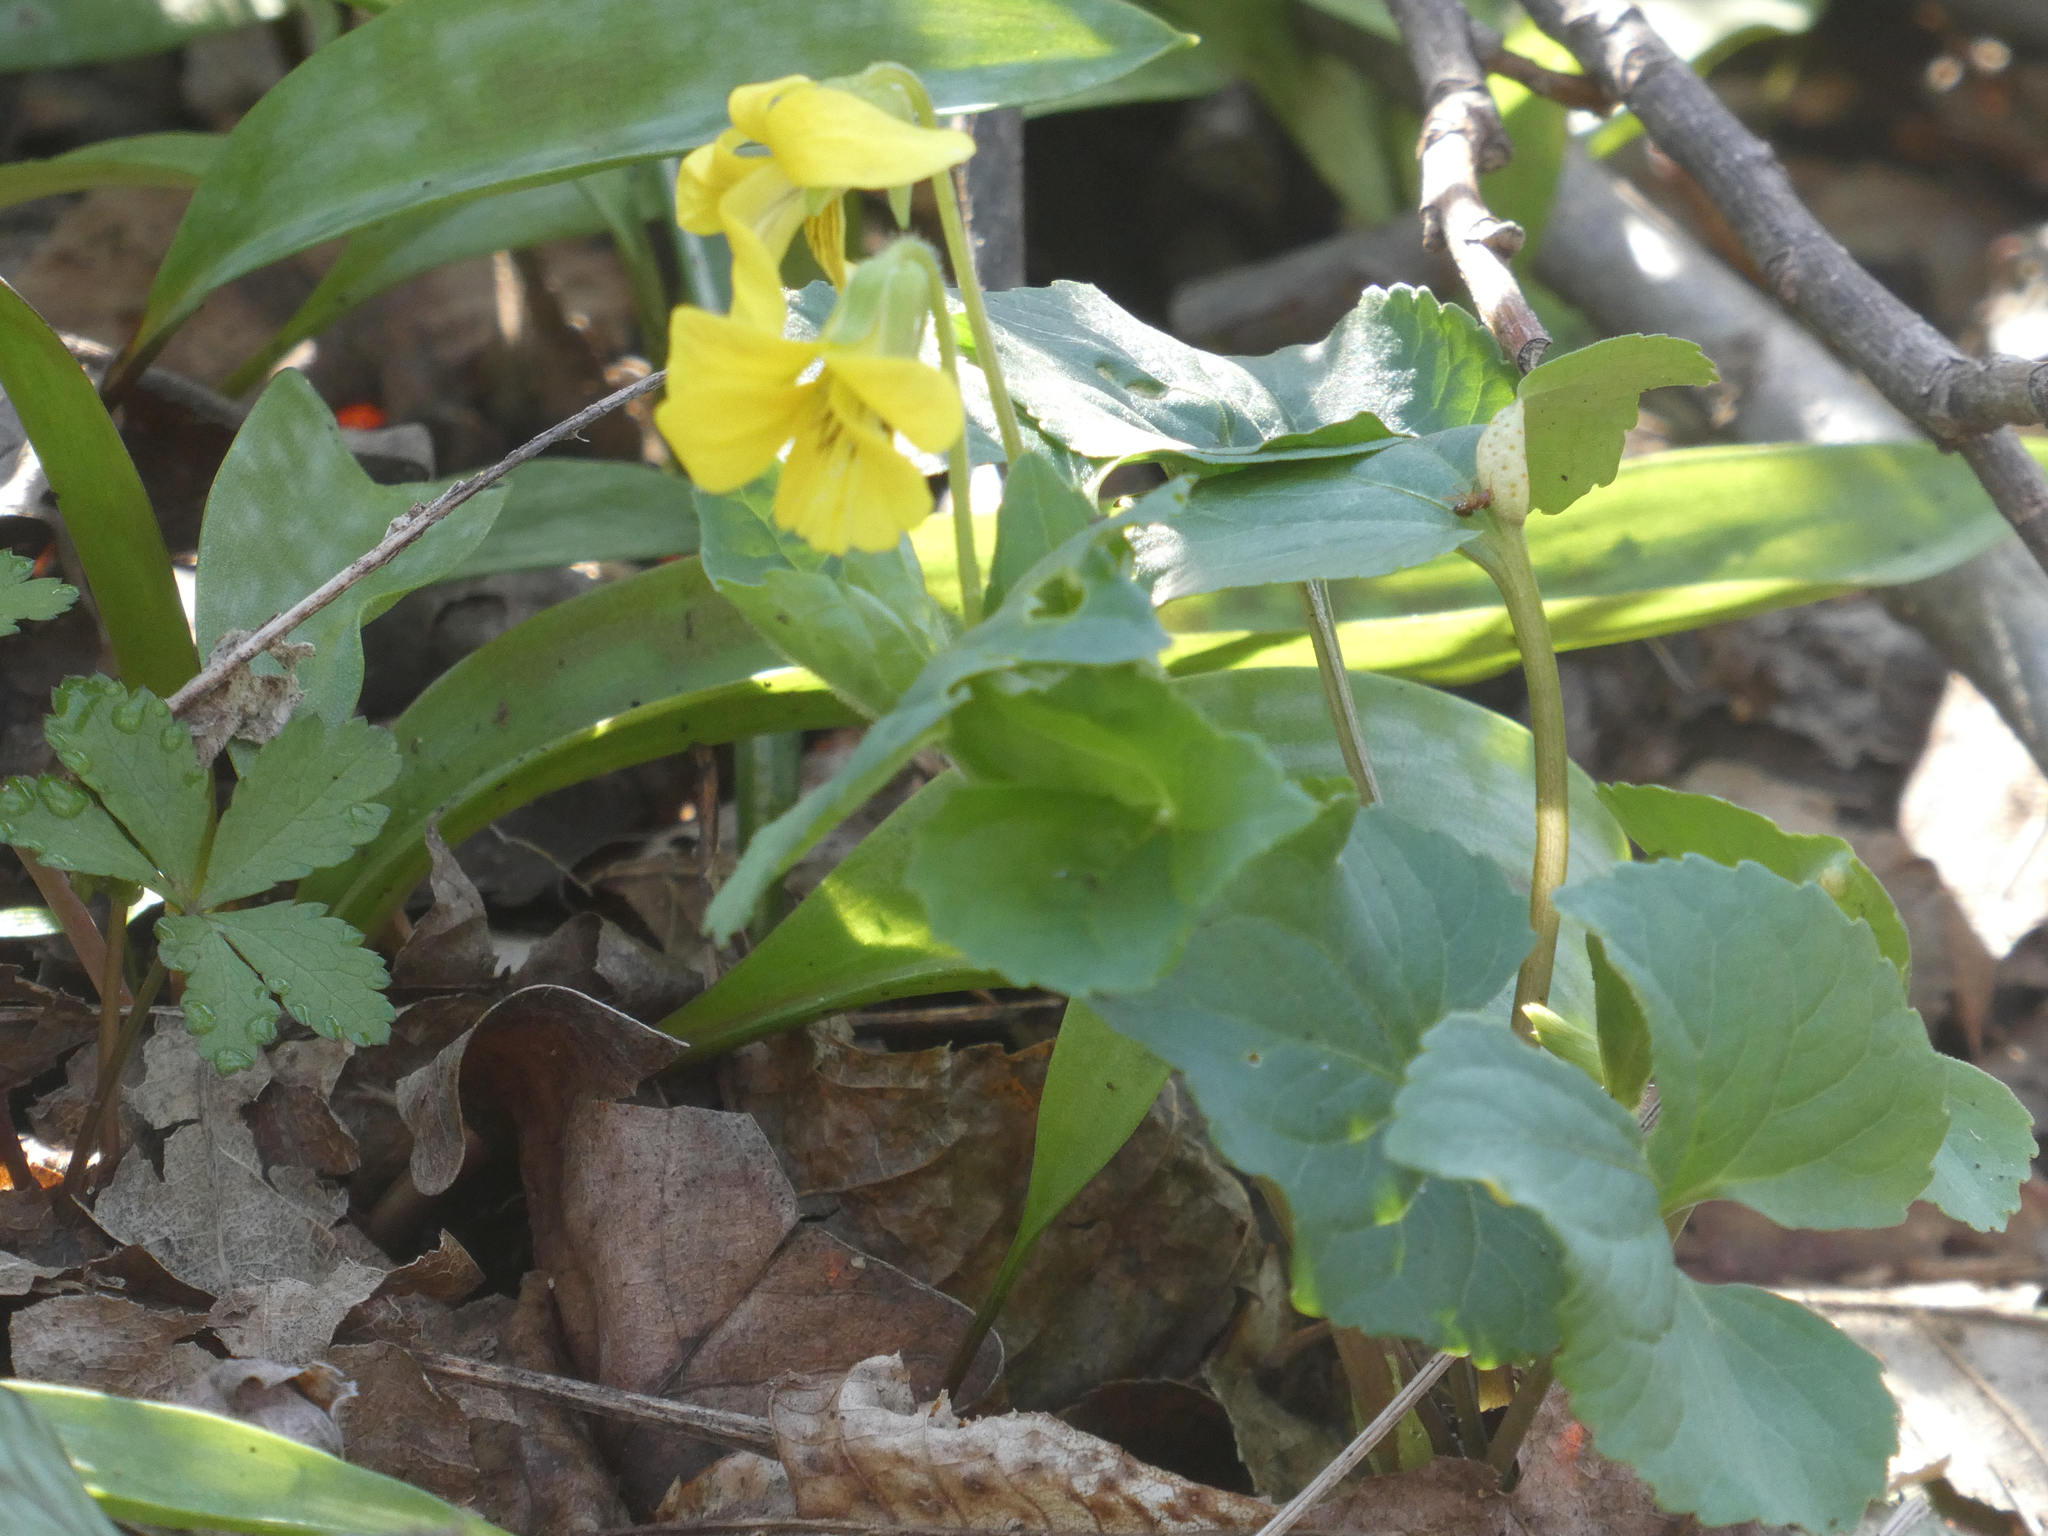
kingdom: Plantae
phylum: Tracheophyta
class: Magnoliopsida
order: Malpighiales
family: Violaceae
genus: Viola
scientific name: Viola eriocarpa
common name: Smooth yellow violet
